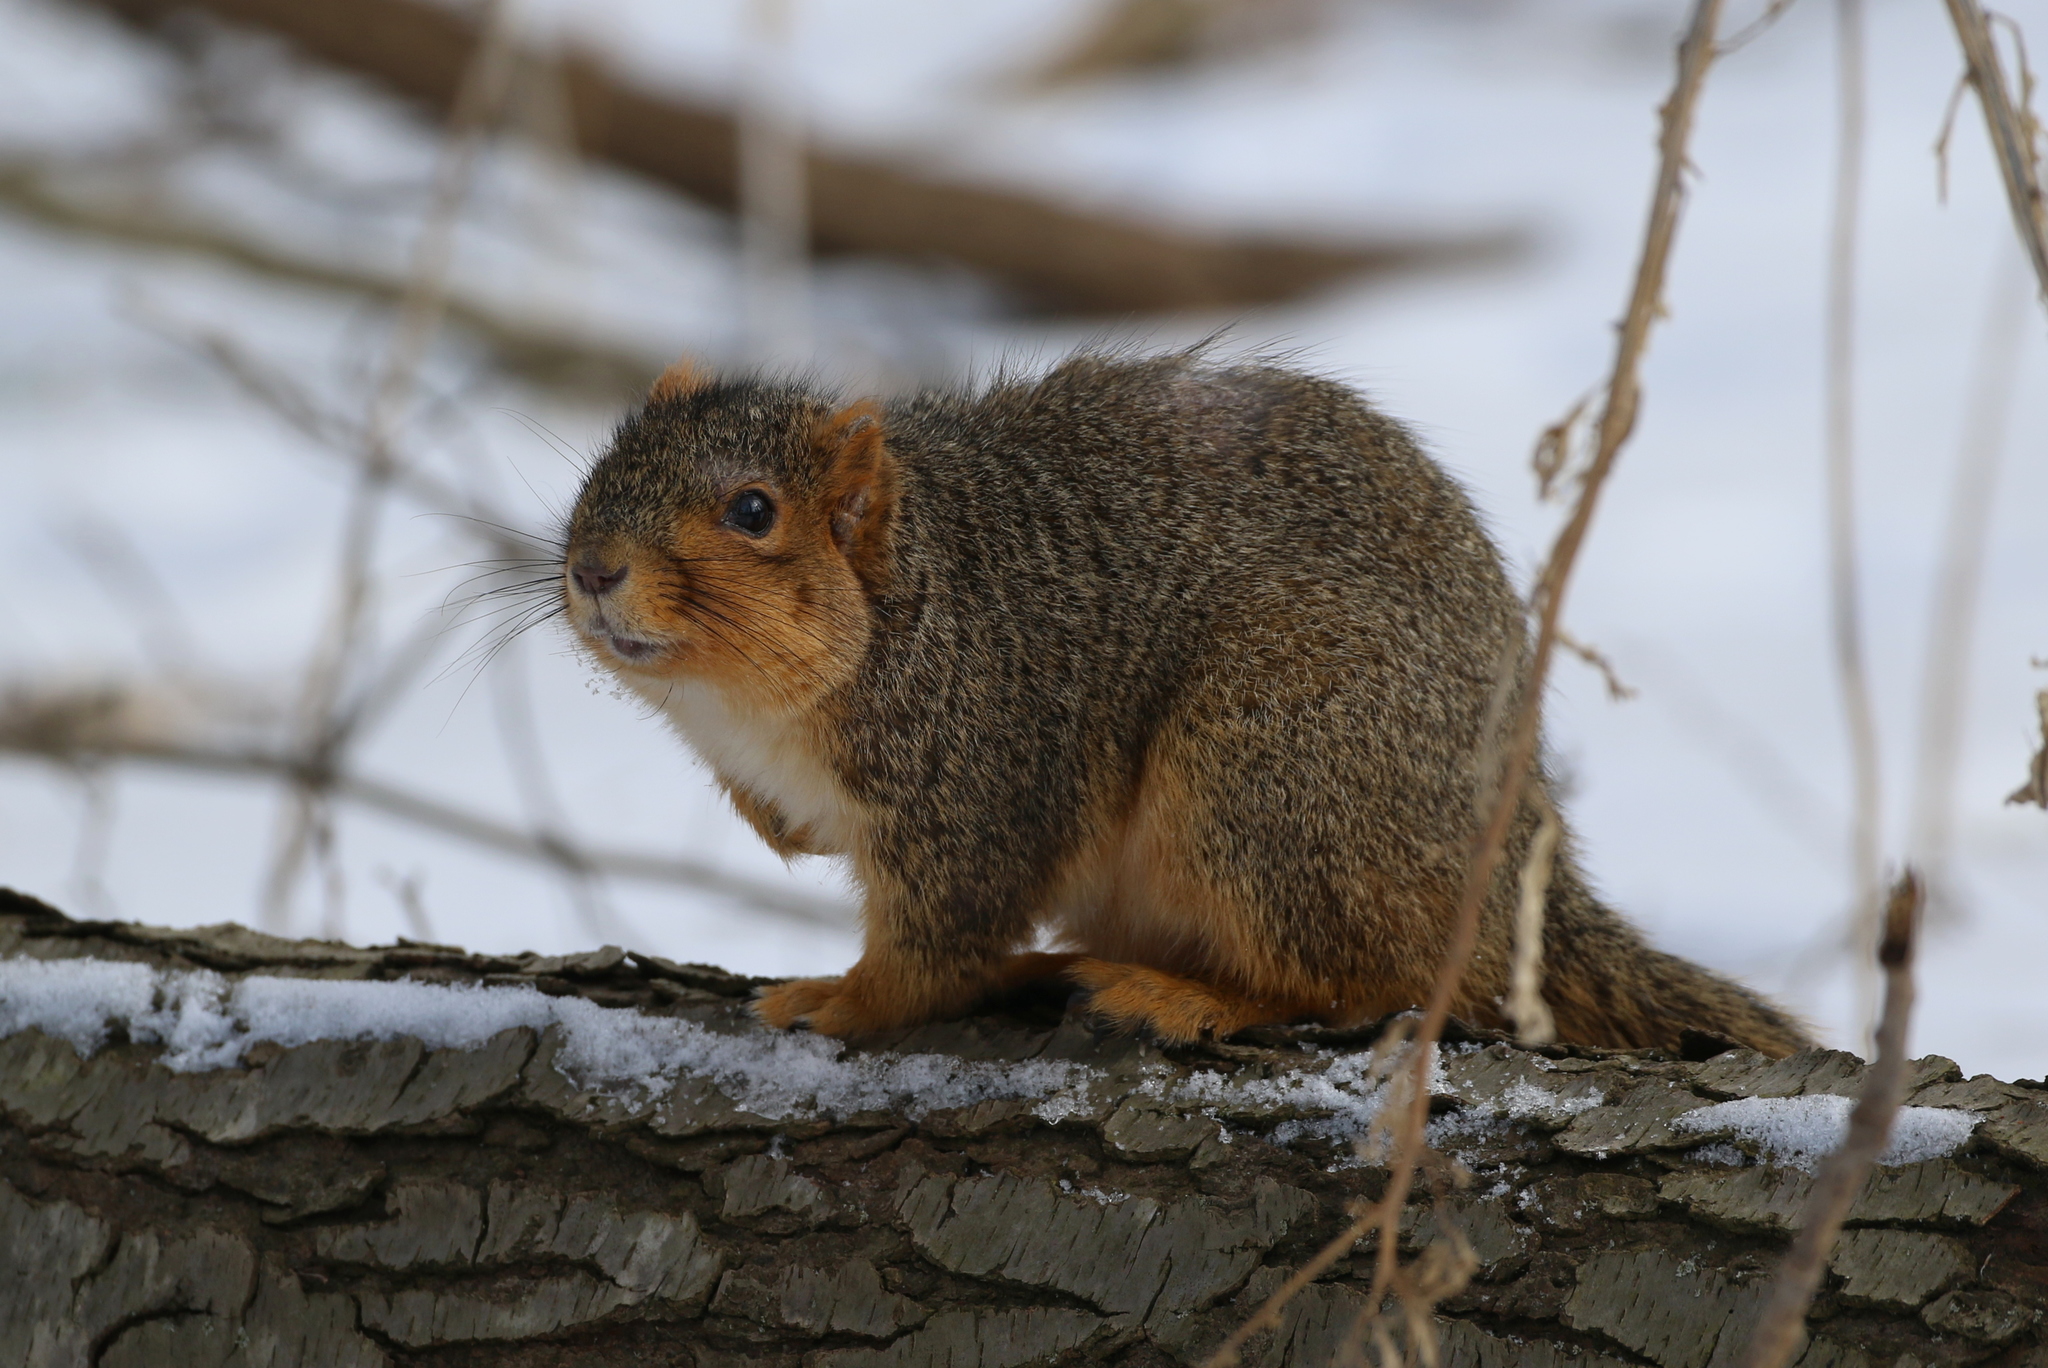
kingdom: Animalia
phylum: Chordata
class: Mammalia
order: Rodentia
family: Sciuridae
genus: Sciurus
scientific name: Sciurus niger
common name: Fox squirrel
